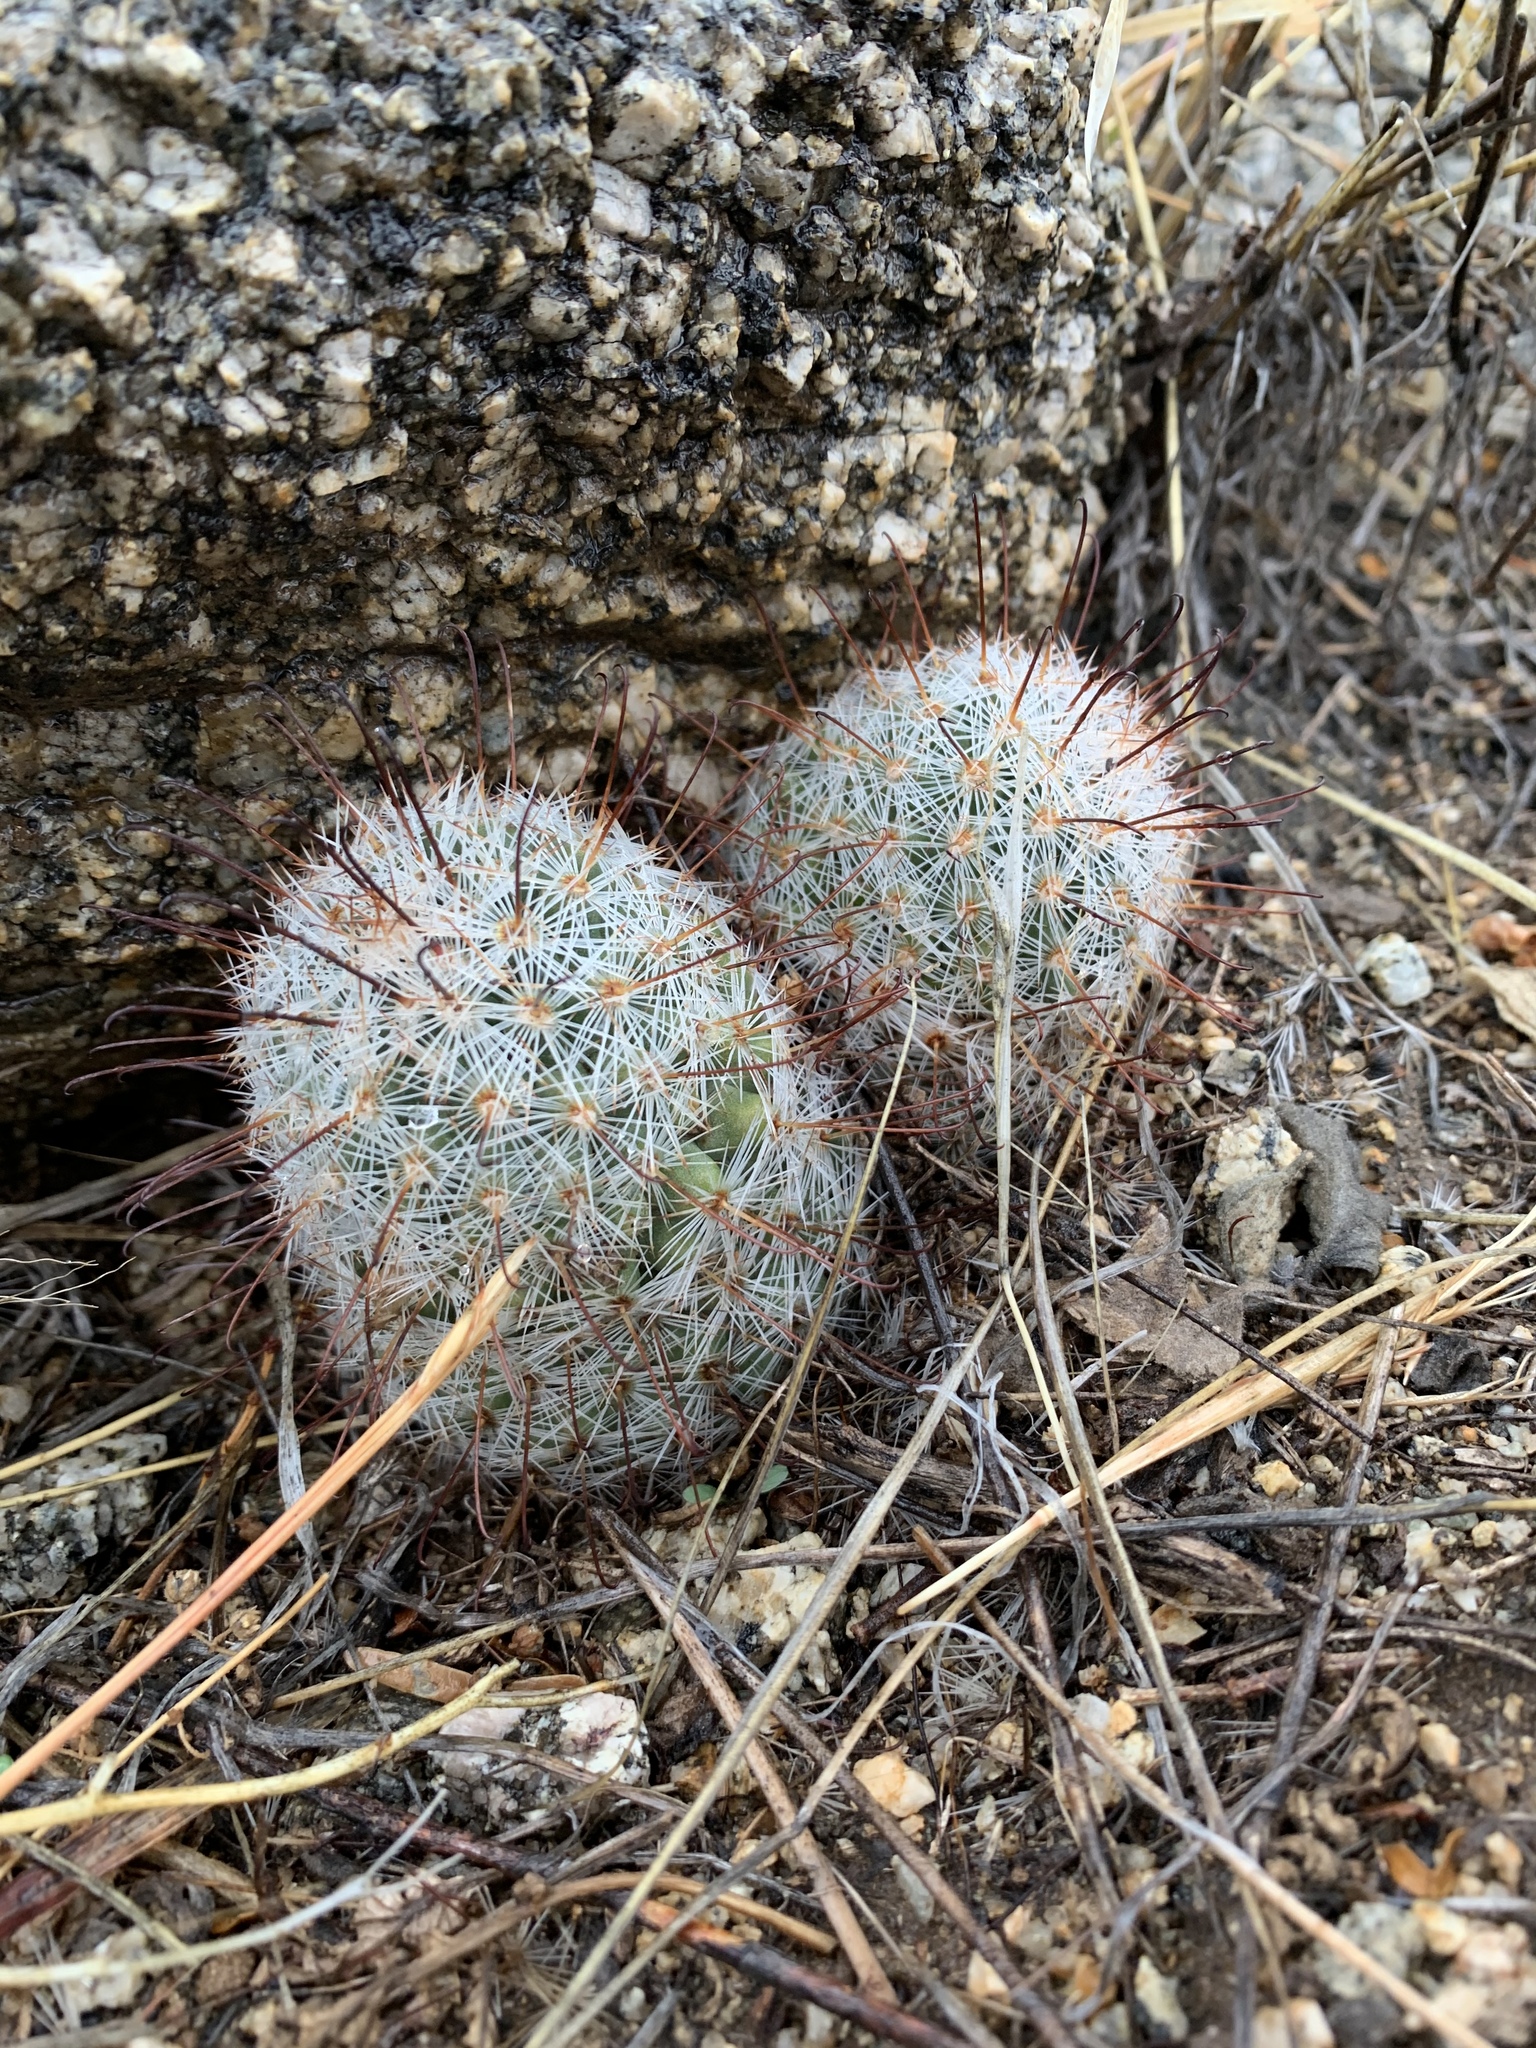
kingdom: Plantae
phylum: Tracheophyta
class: Magnoliopsida
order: Caryophyllales
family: Cactaceae
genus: Cochemiea
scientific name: Cochemiea grahamii
